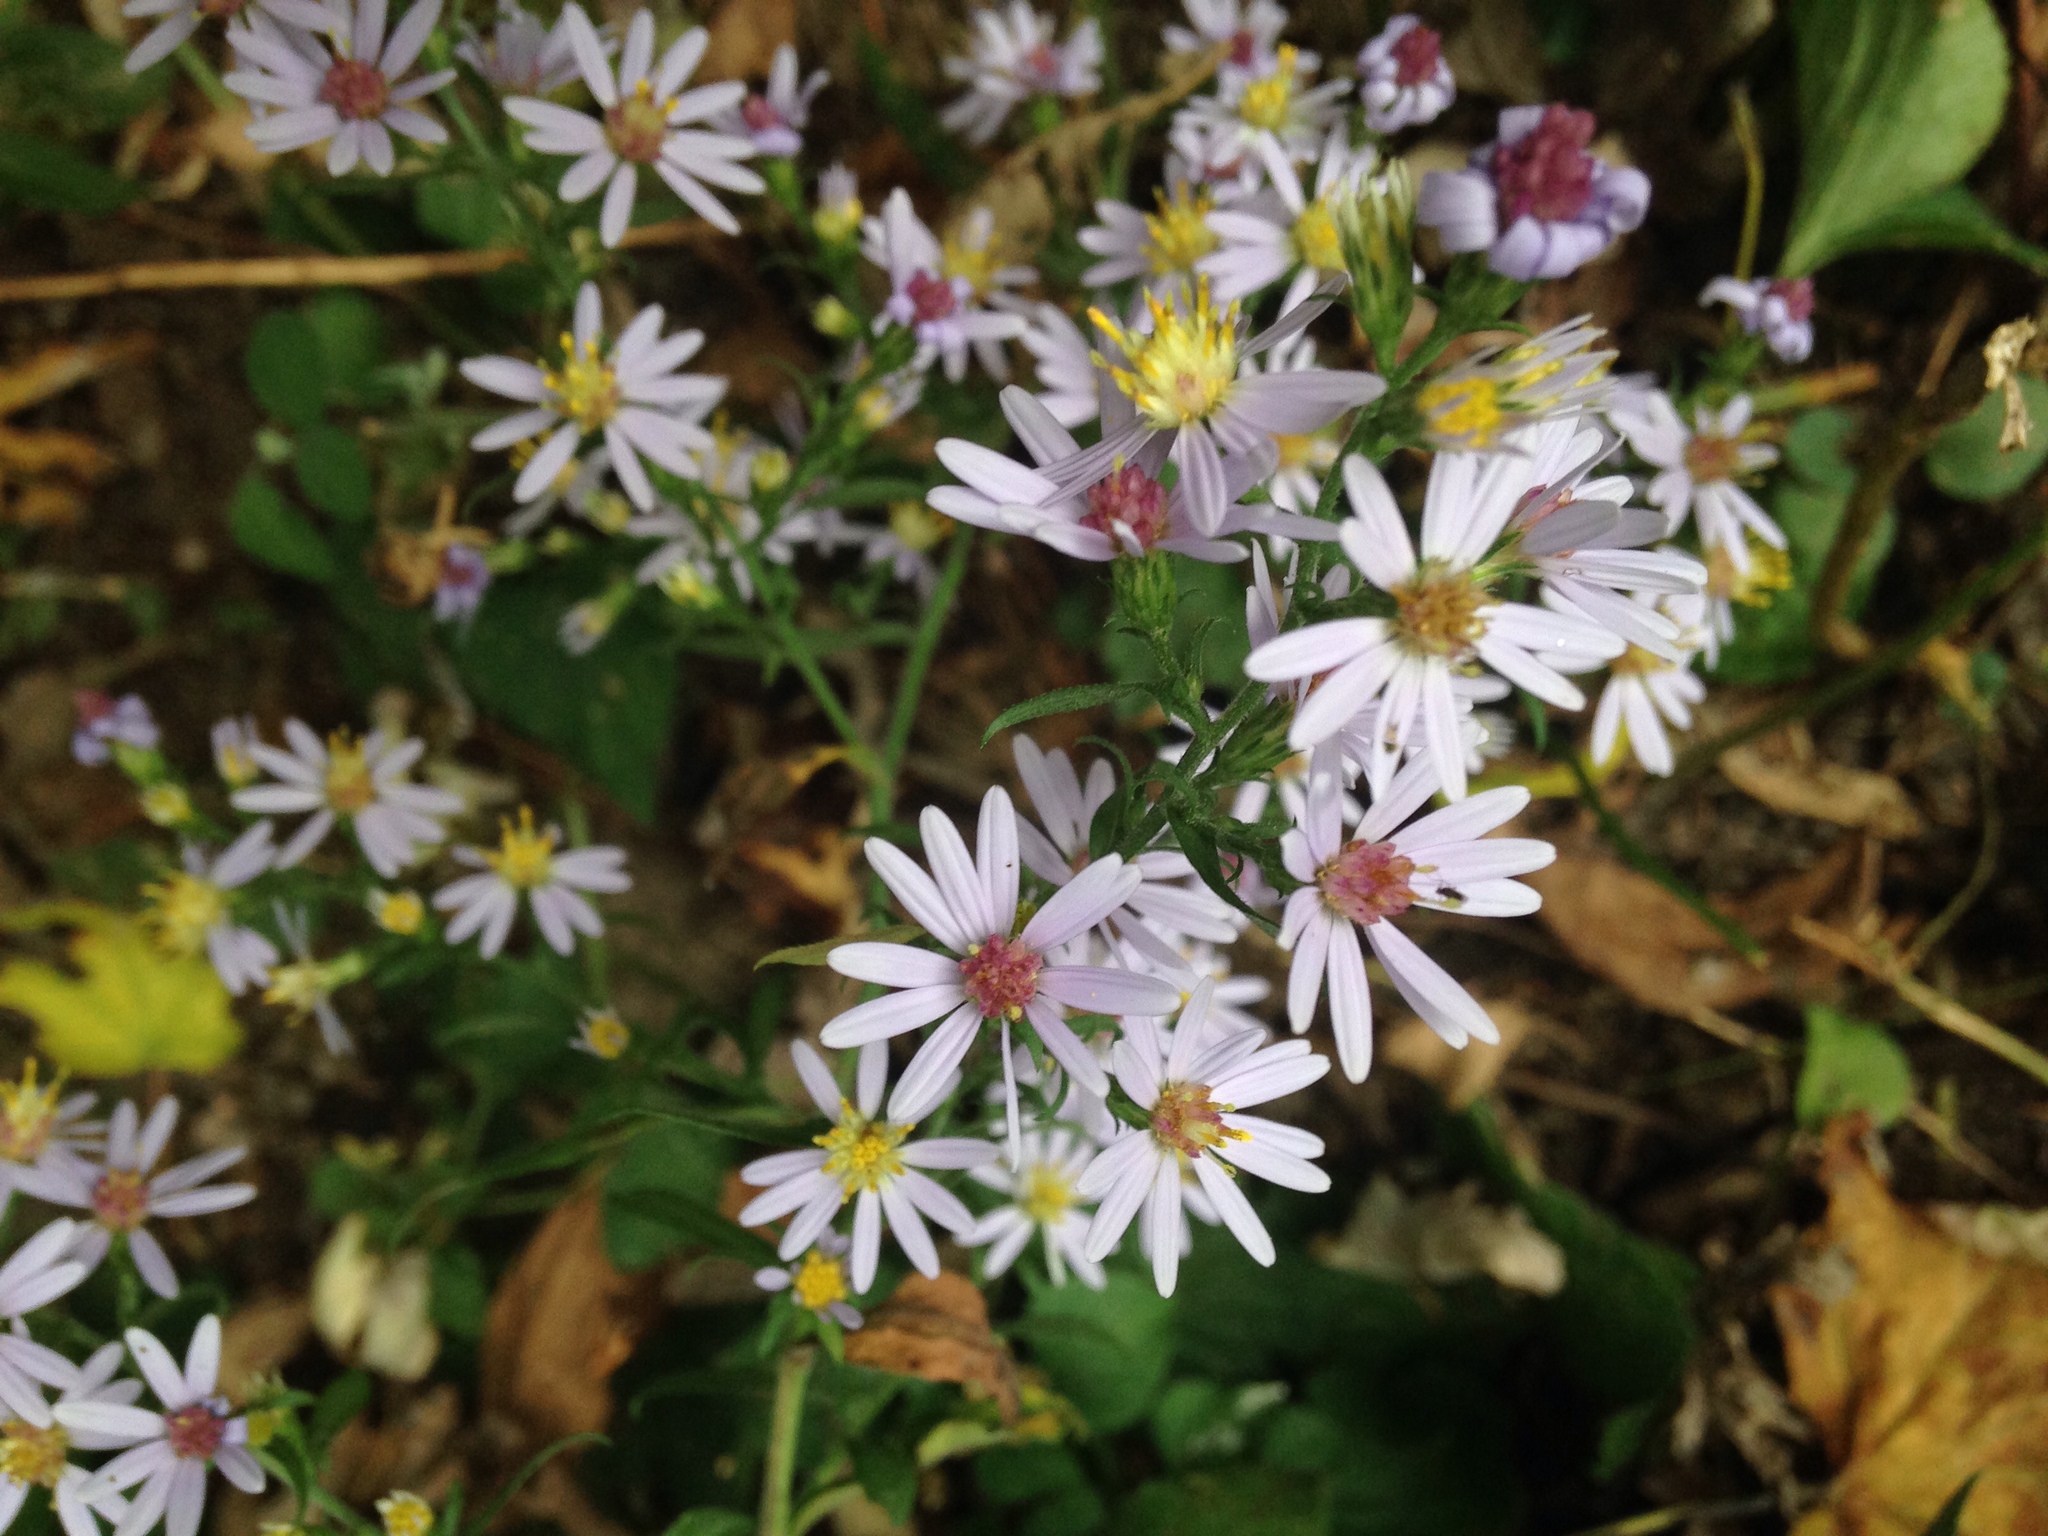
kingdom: Plantae
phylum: Tracheophyta
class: Magnoliopsida
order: Asterales
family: Asteraceae
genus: Symphyotrichum
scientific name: Symphyotrichum drummondii
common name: Drummond's aster
